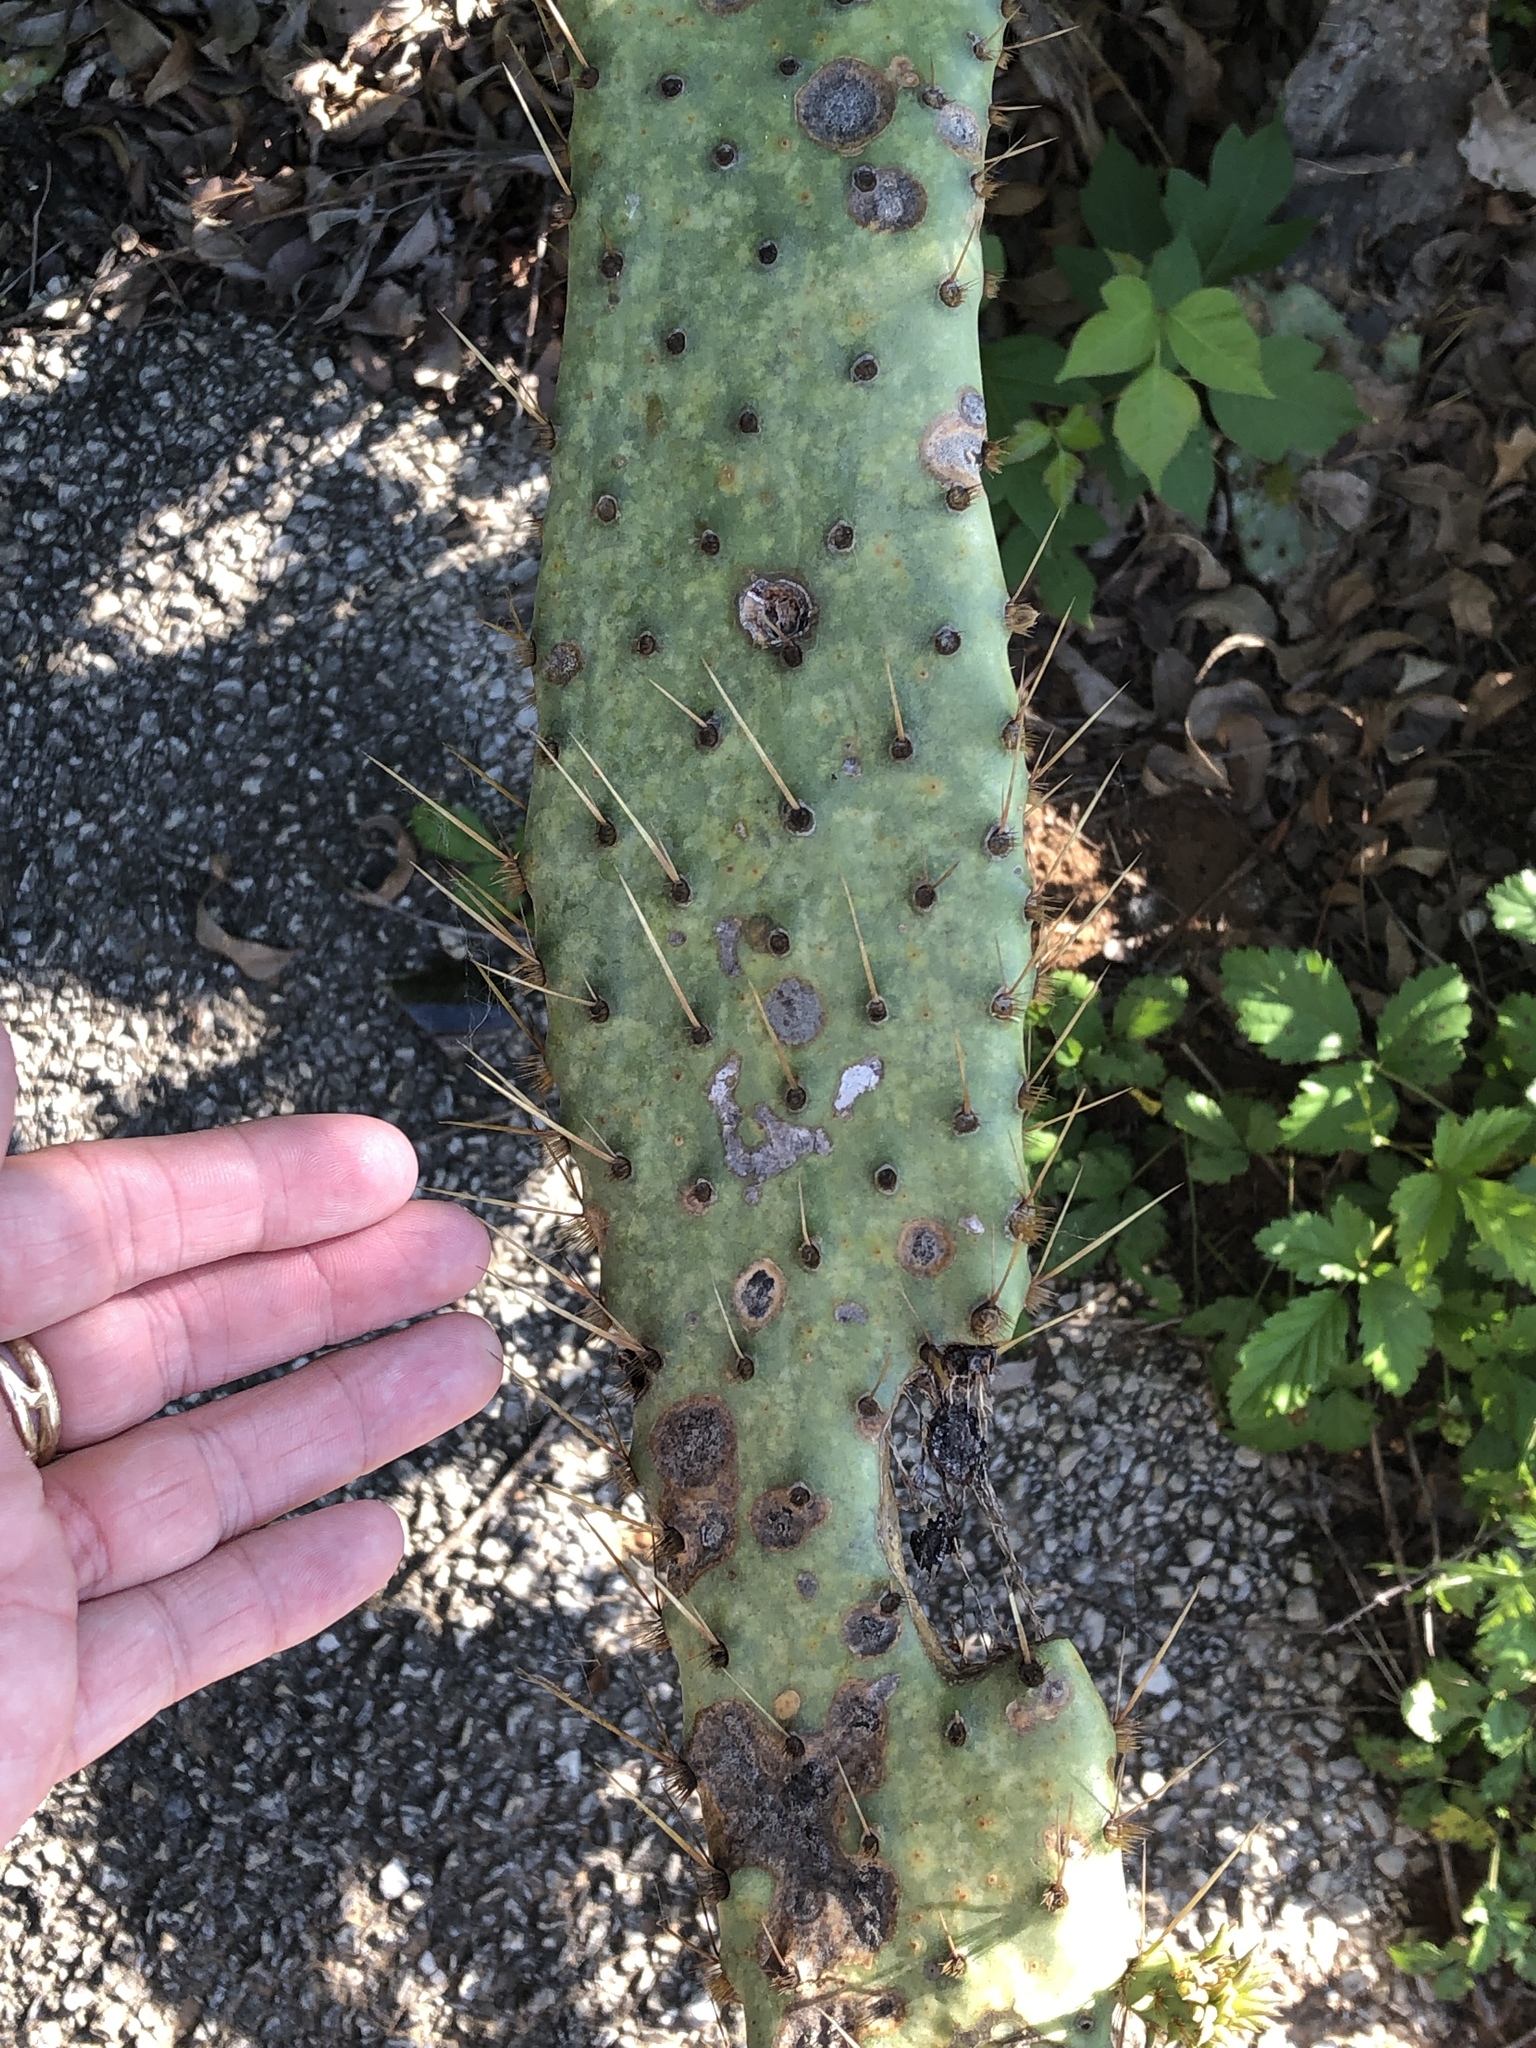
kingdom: Plantae
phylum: Tracheophyta
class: Magnoliopsida
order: Caryophyllales
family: Cactaceae
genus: Opuntia
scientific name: Opuntia engelmannii
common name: Cactus-apple
